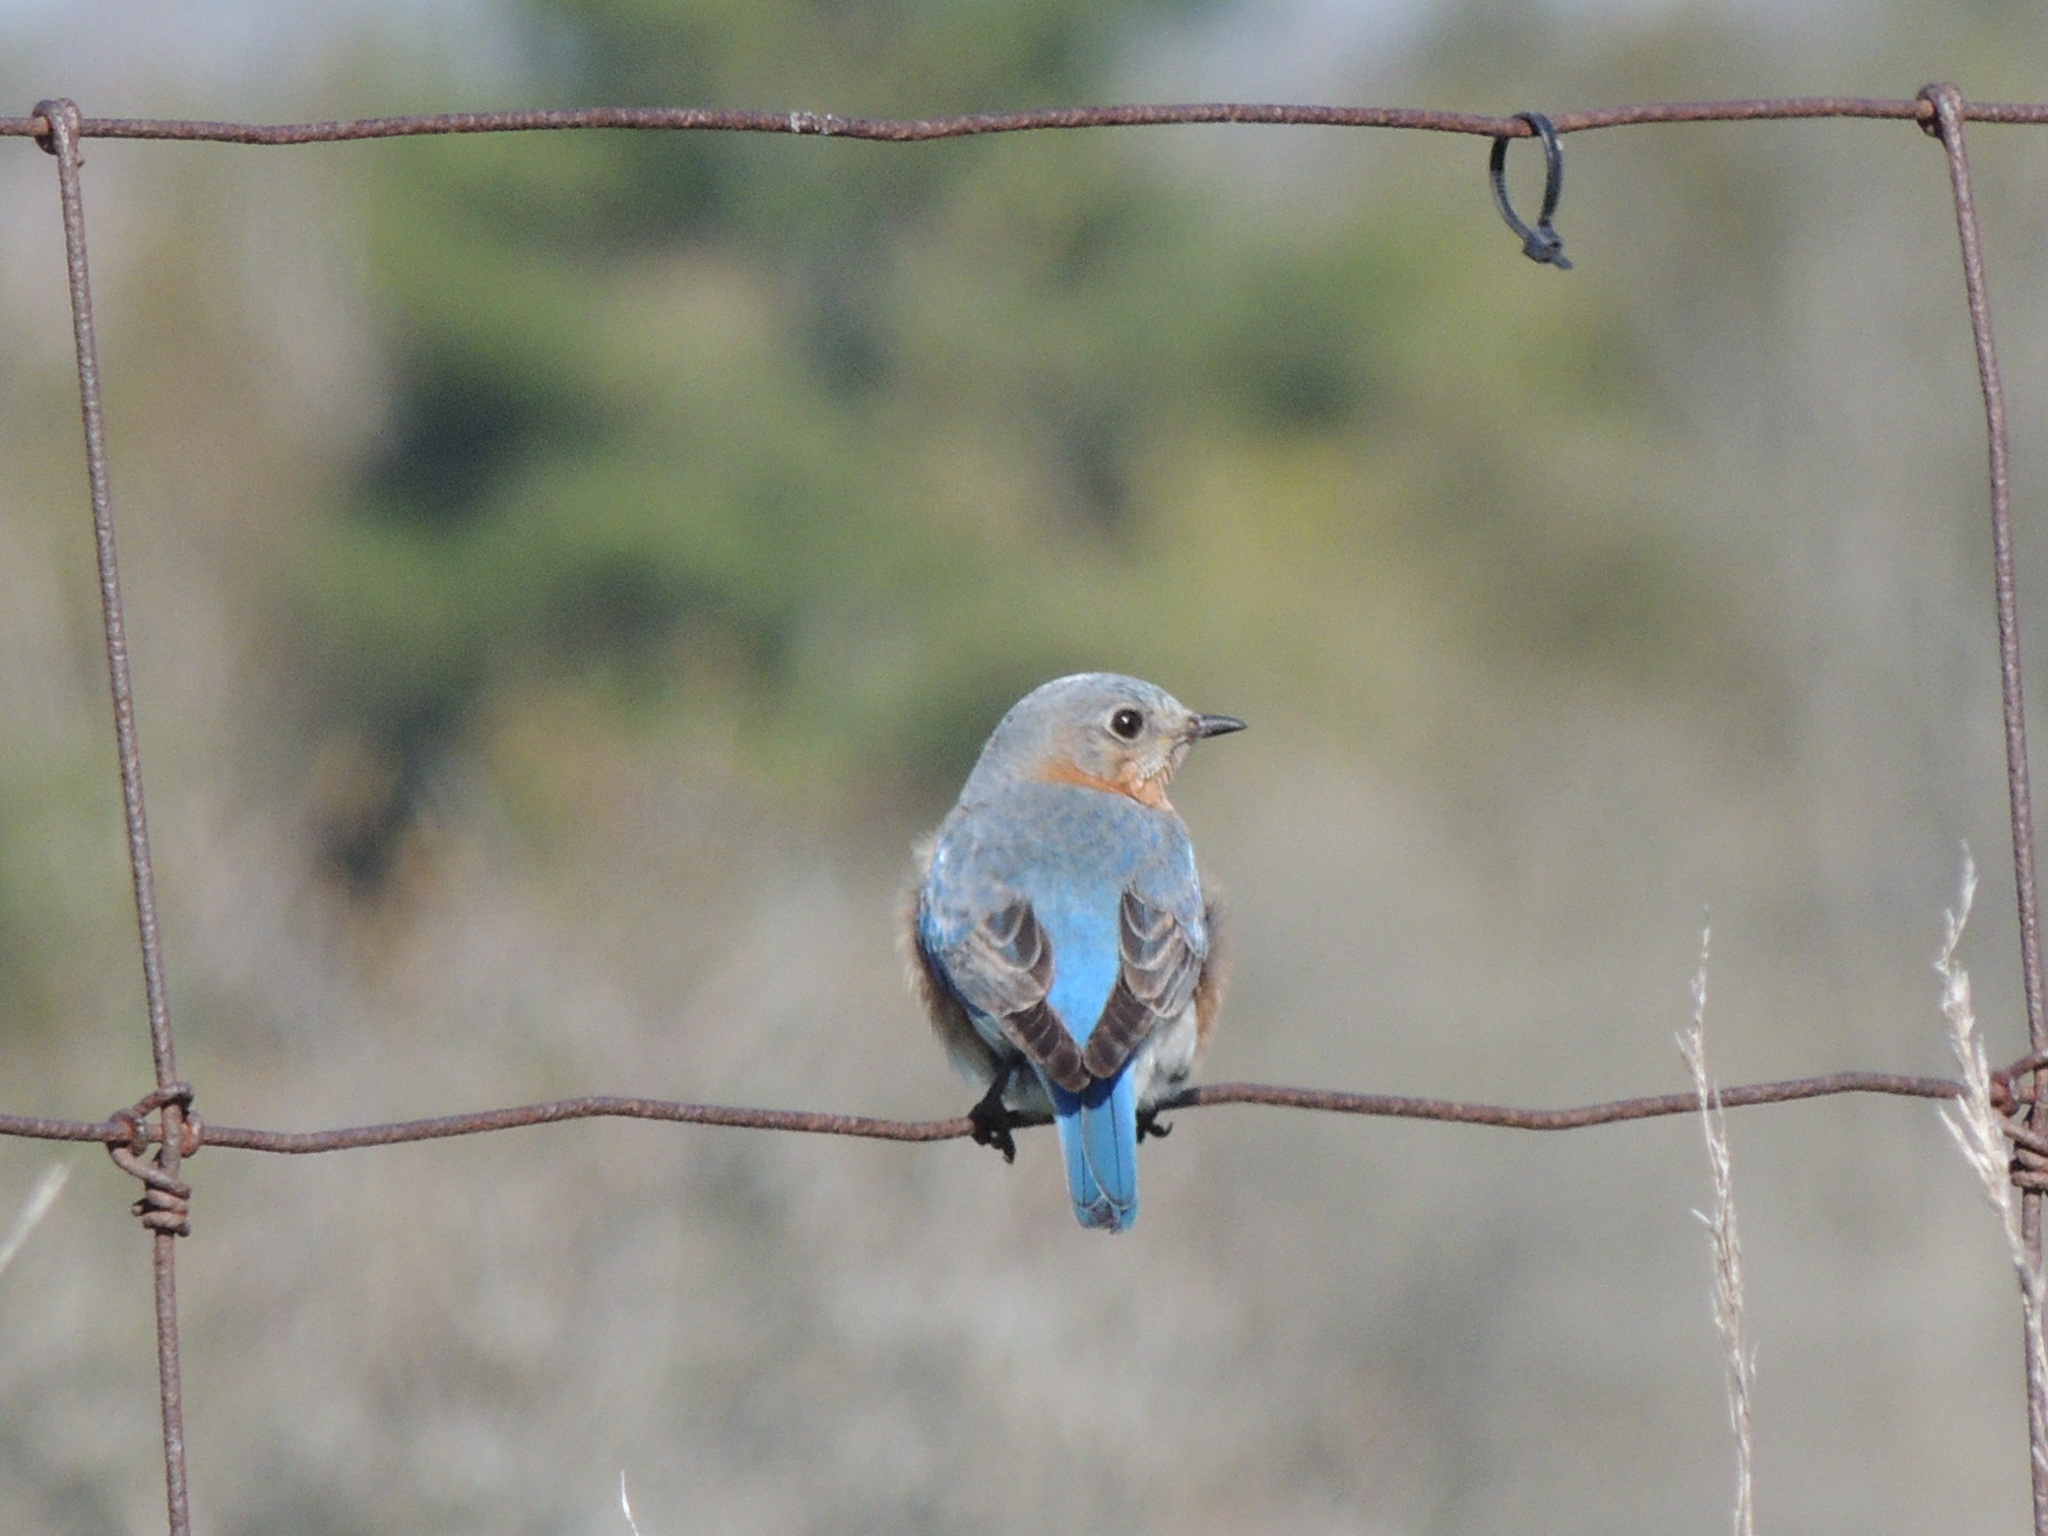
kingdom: Animalia
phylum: Chordata
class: Aves
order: Passeriformes
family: Turdidae
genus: Sialia
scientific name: Sialia sialis
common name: Eastern bluebird
